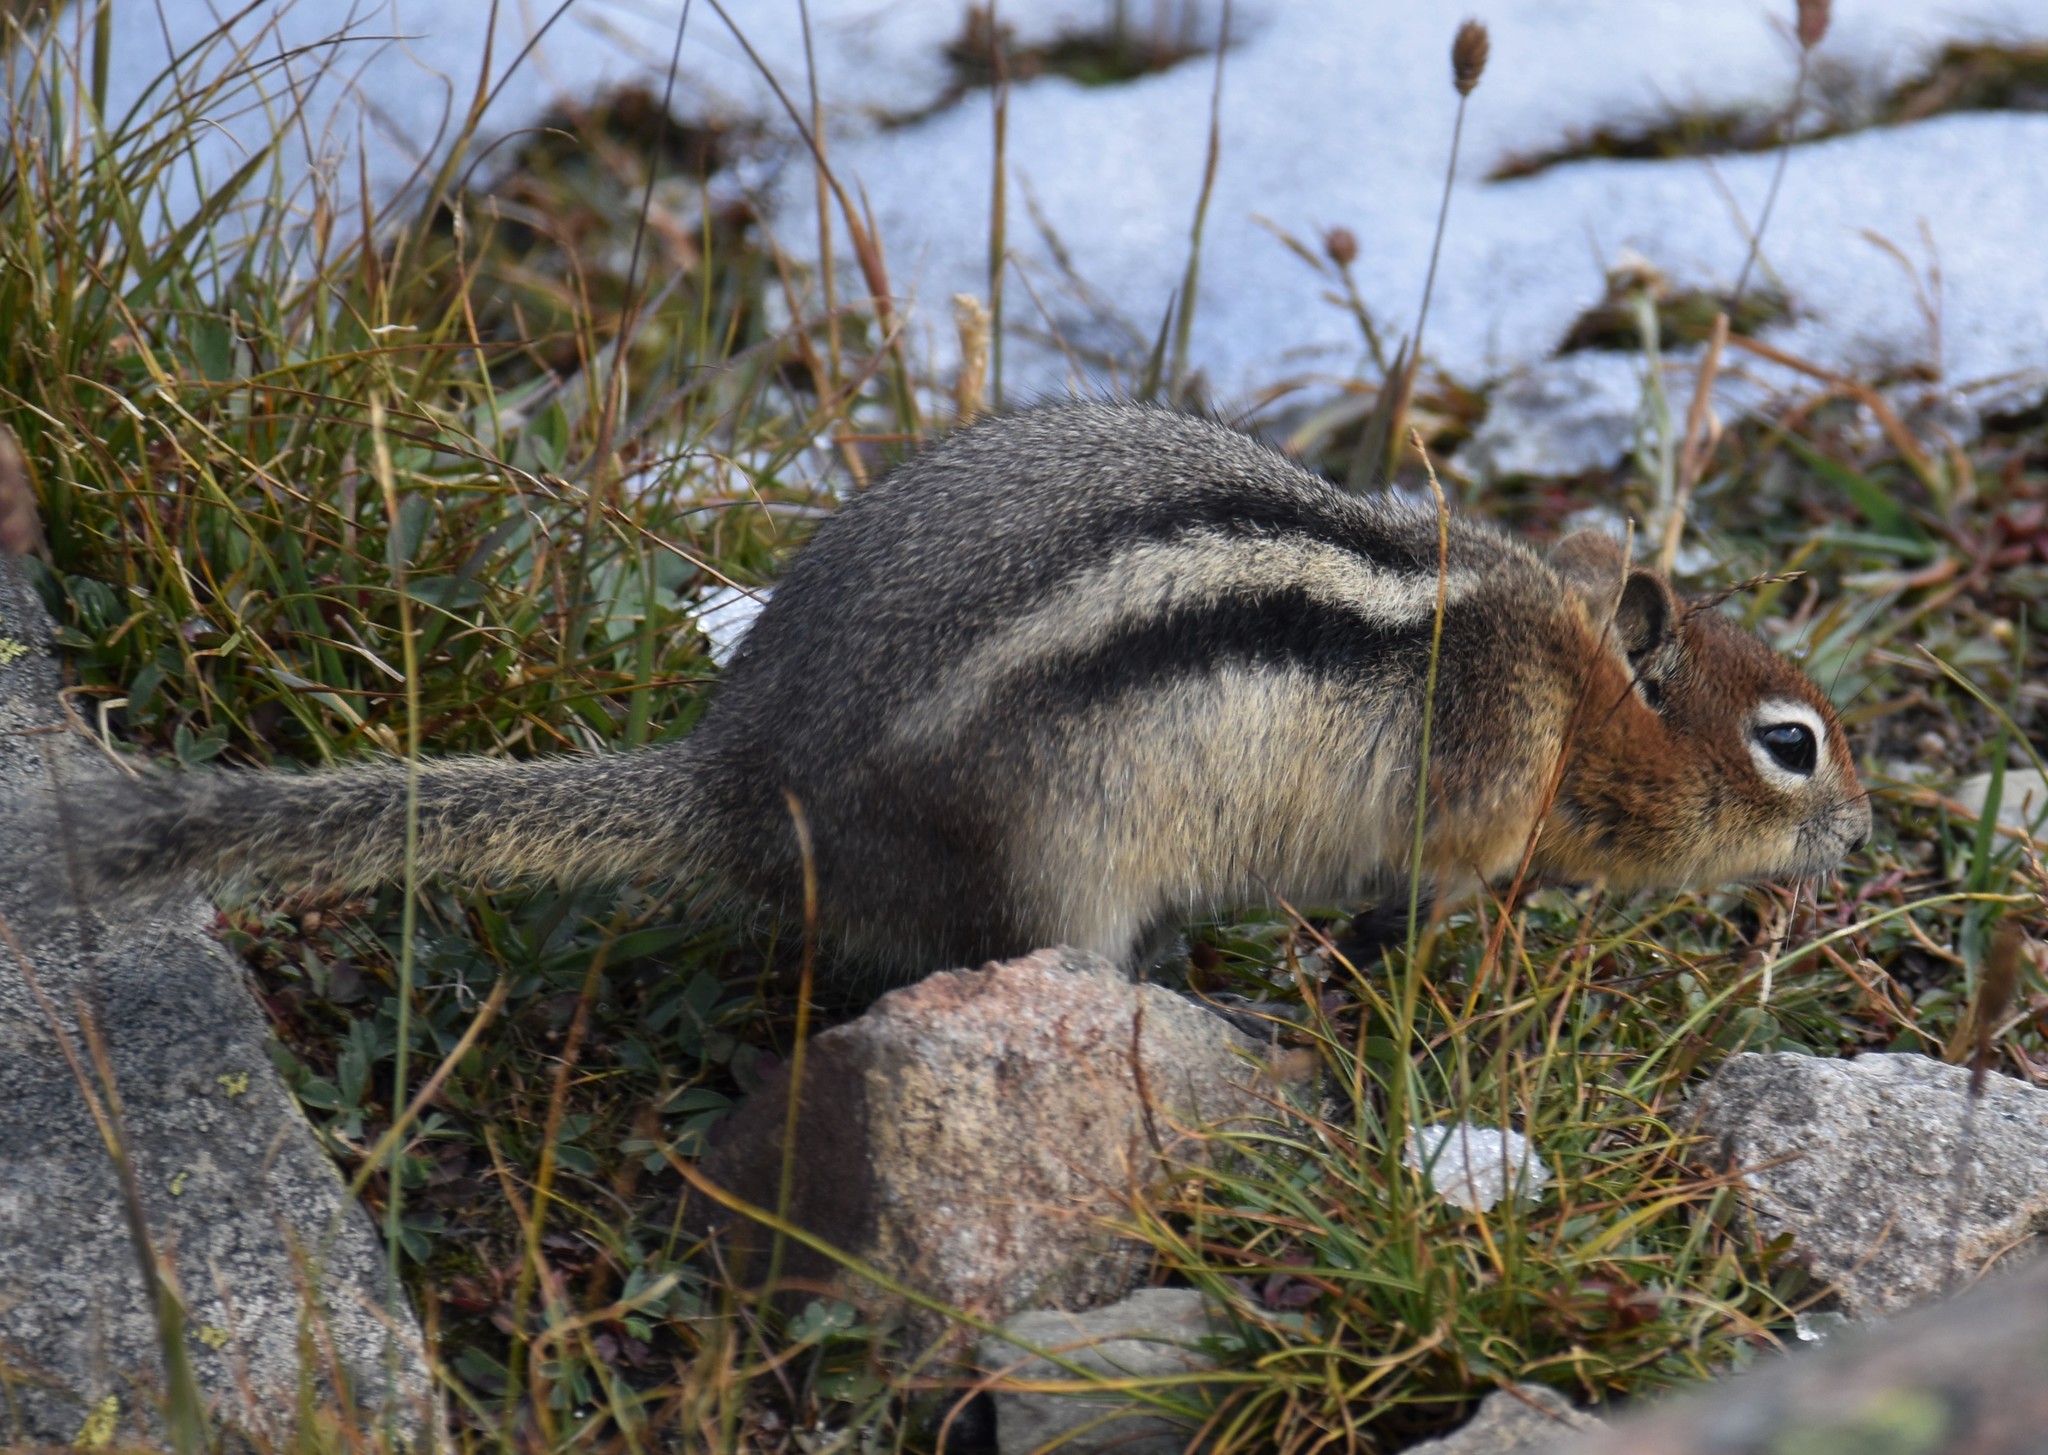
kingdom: Animalia
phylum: Chordata
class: Mammalia
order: Rodentia
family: Sciuridae
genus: Callospermophilus
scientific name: Callospermophilus lateralis
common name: Golden-mantled ground squirrel
